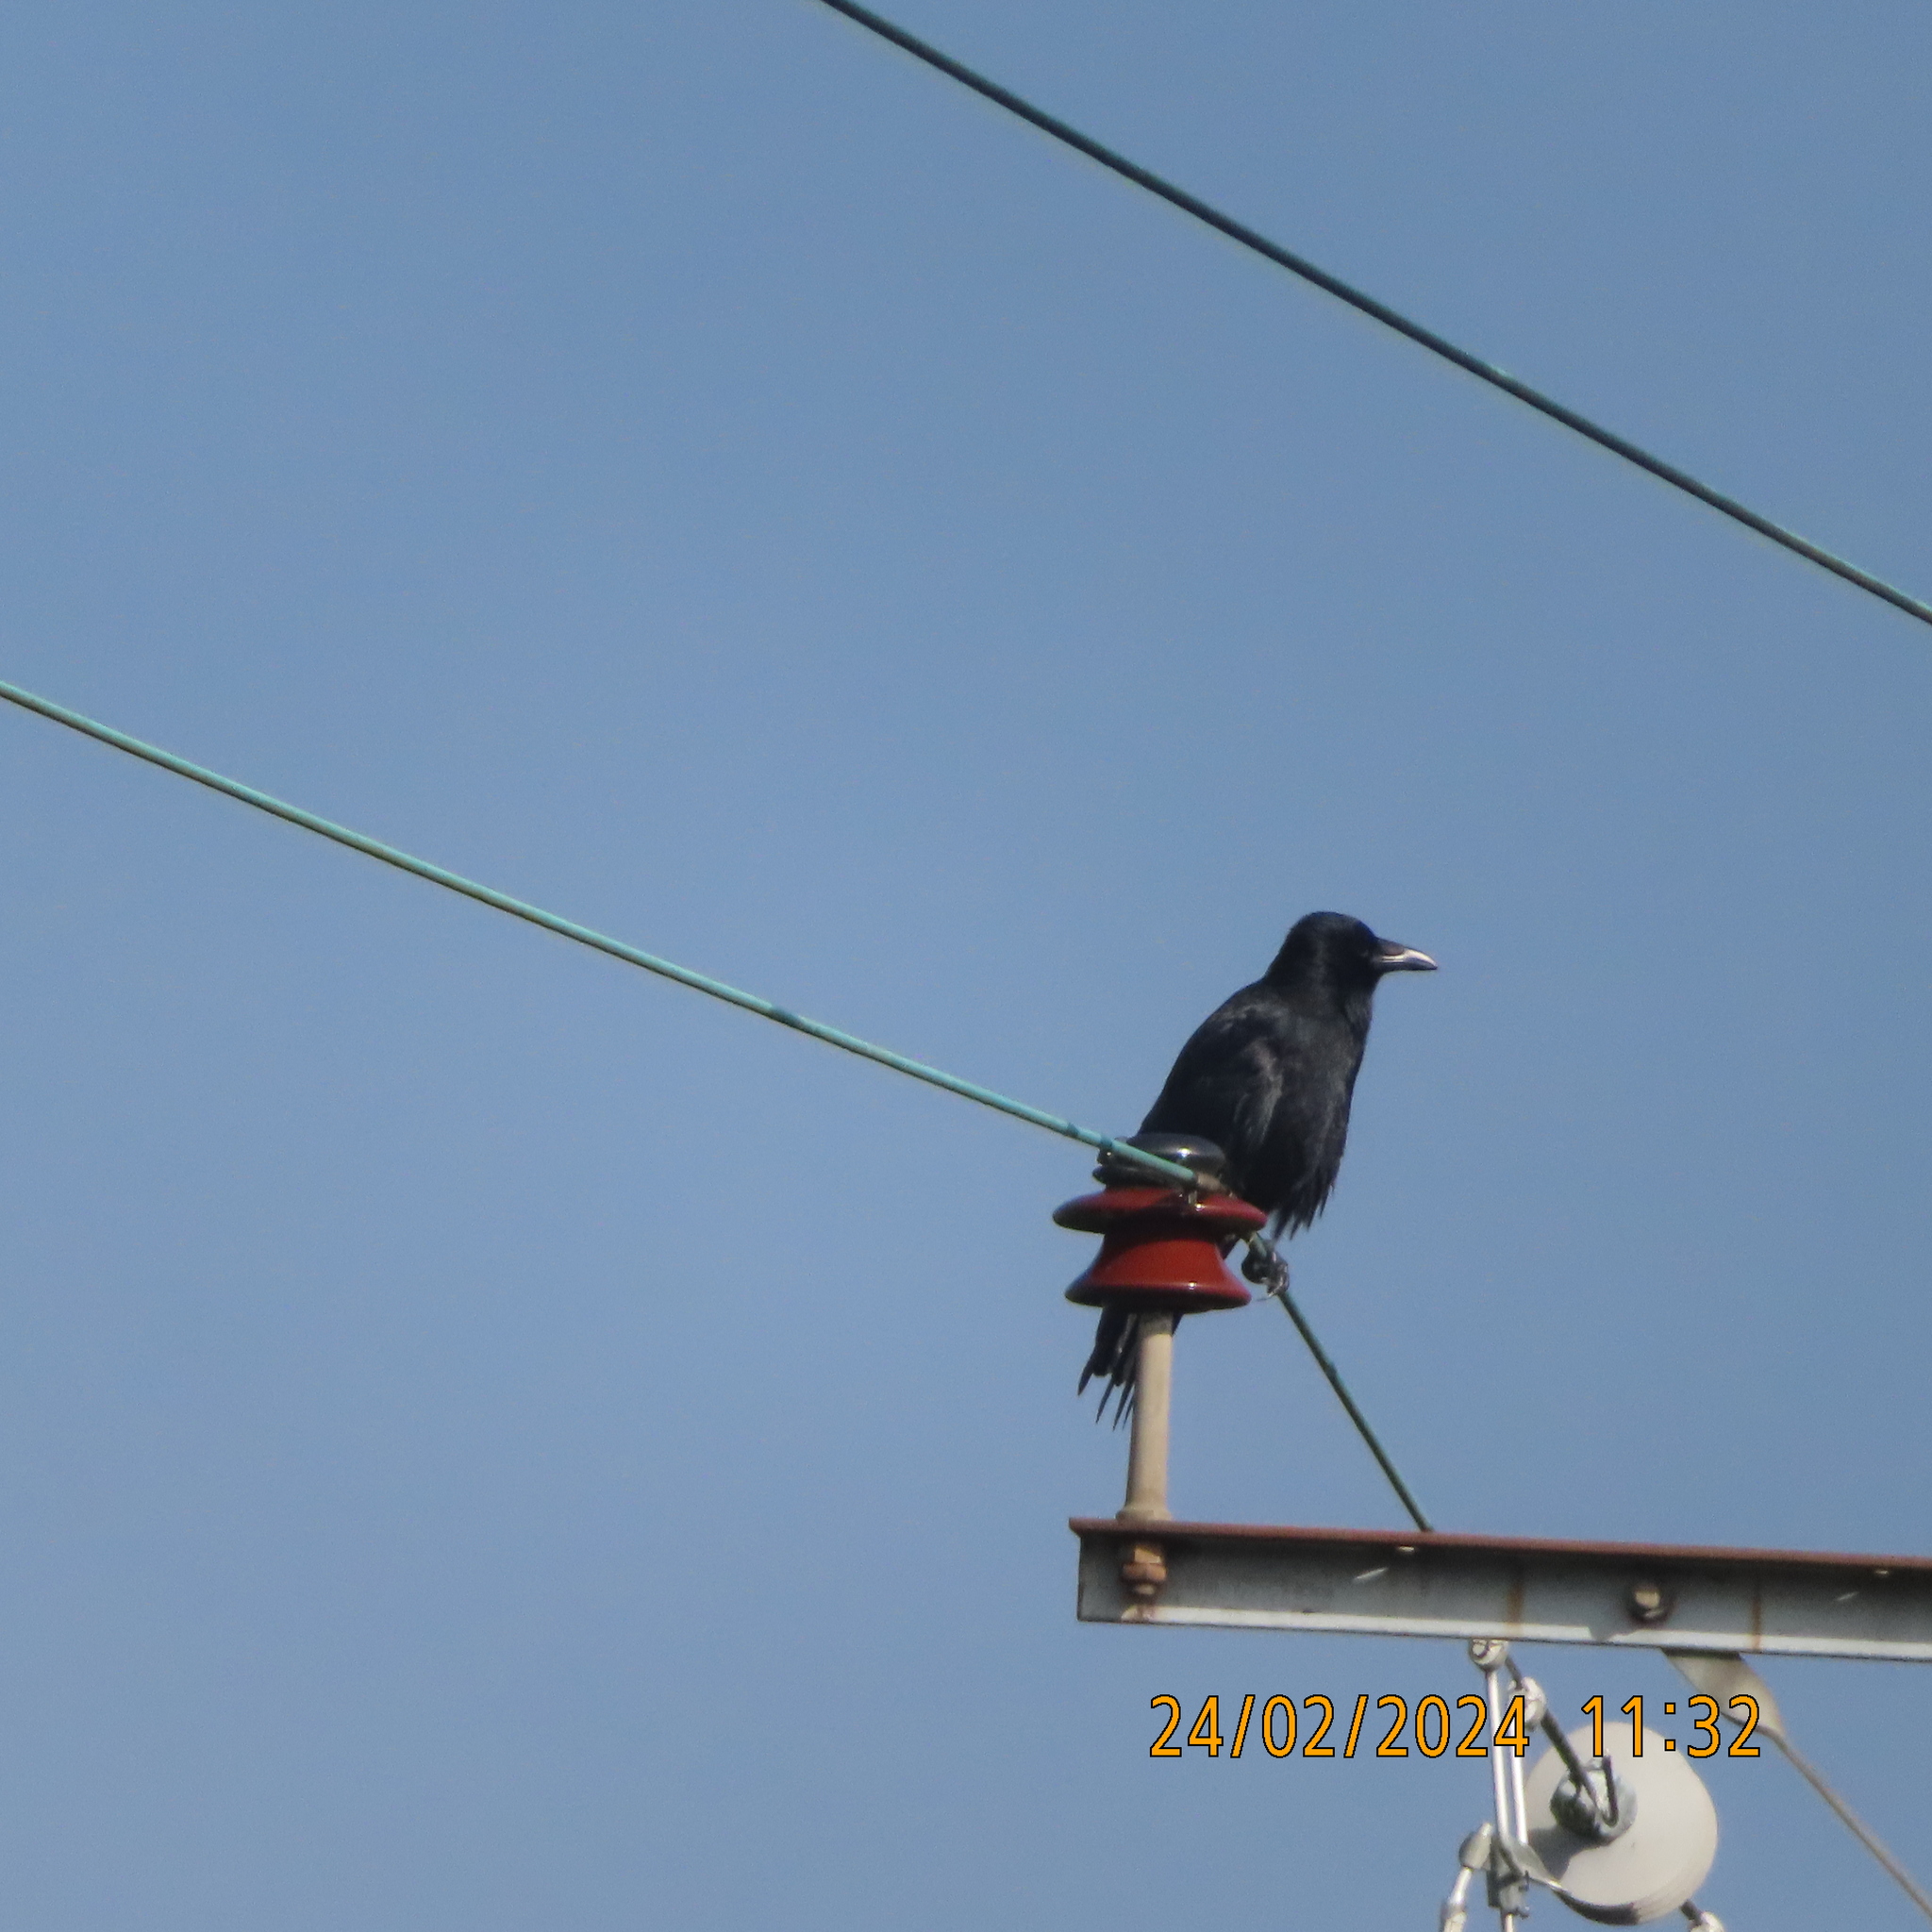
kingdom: Animalia
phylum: Chordata
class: Aves
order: Passeriformes
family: Corvidae
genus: Corvus
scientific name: Corvus corone
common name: Carrion crow
